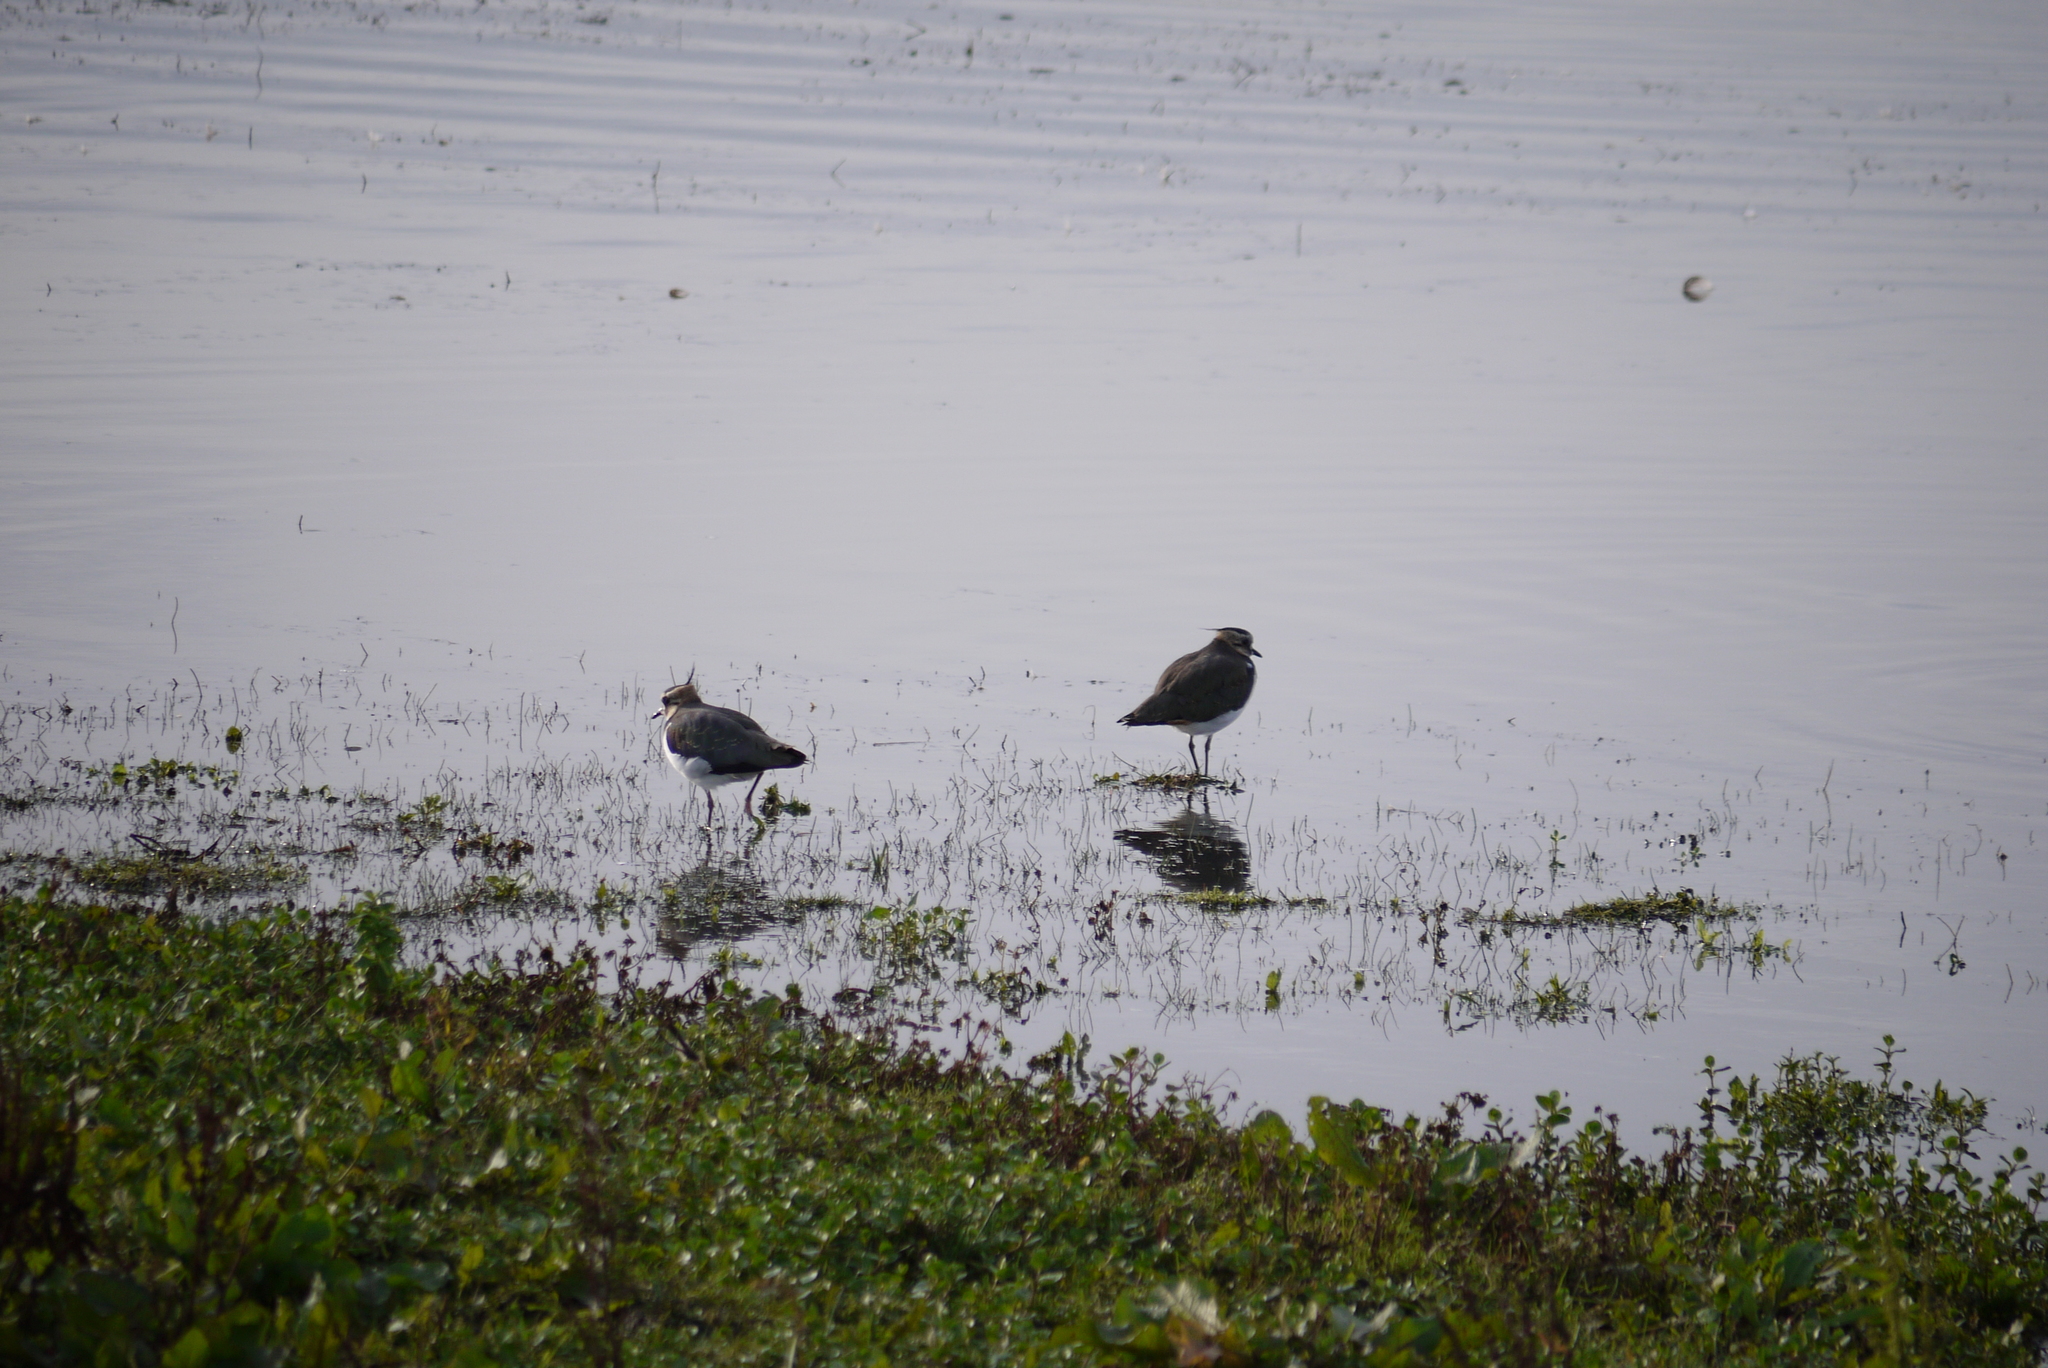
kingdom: Animalia
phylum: Chordata
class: Aves
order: Charadriiformes
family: Charadriidae
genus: Vanellus
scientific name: Vanellus vanellus
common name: Northern lapwing
